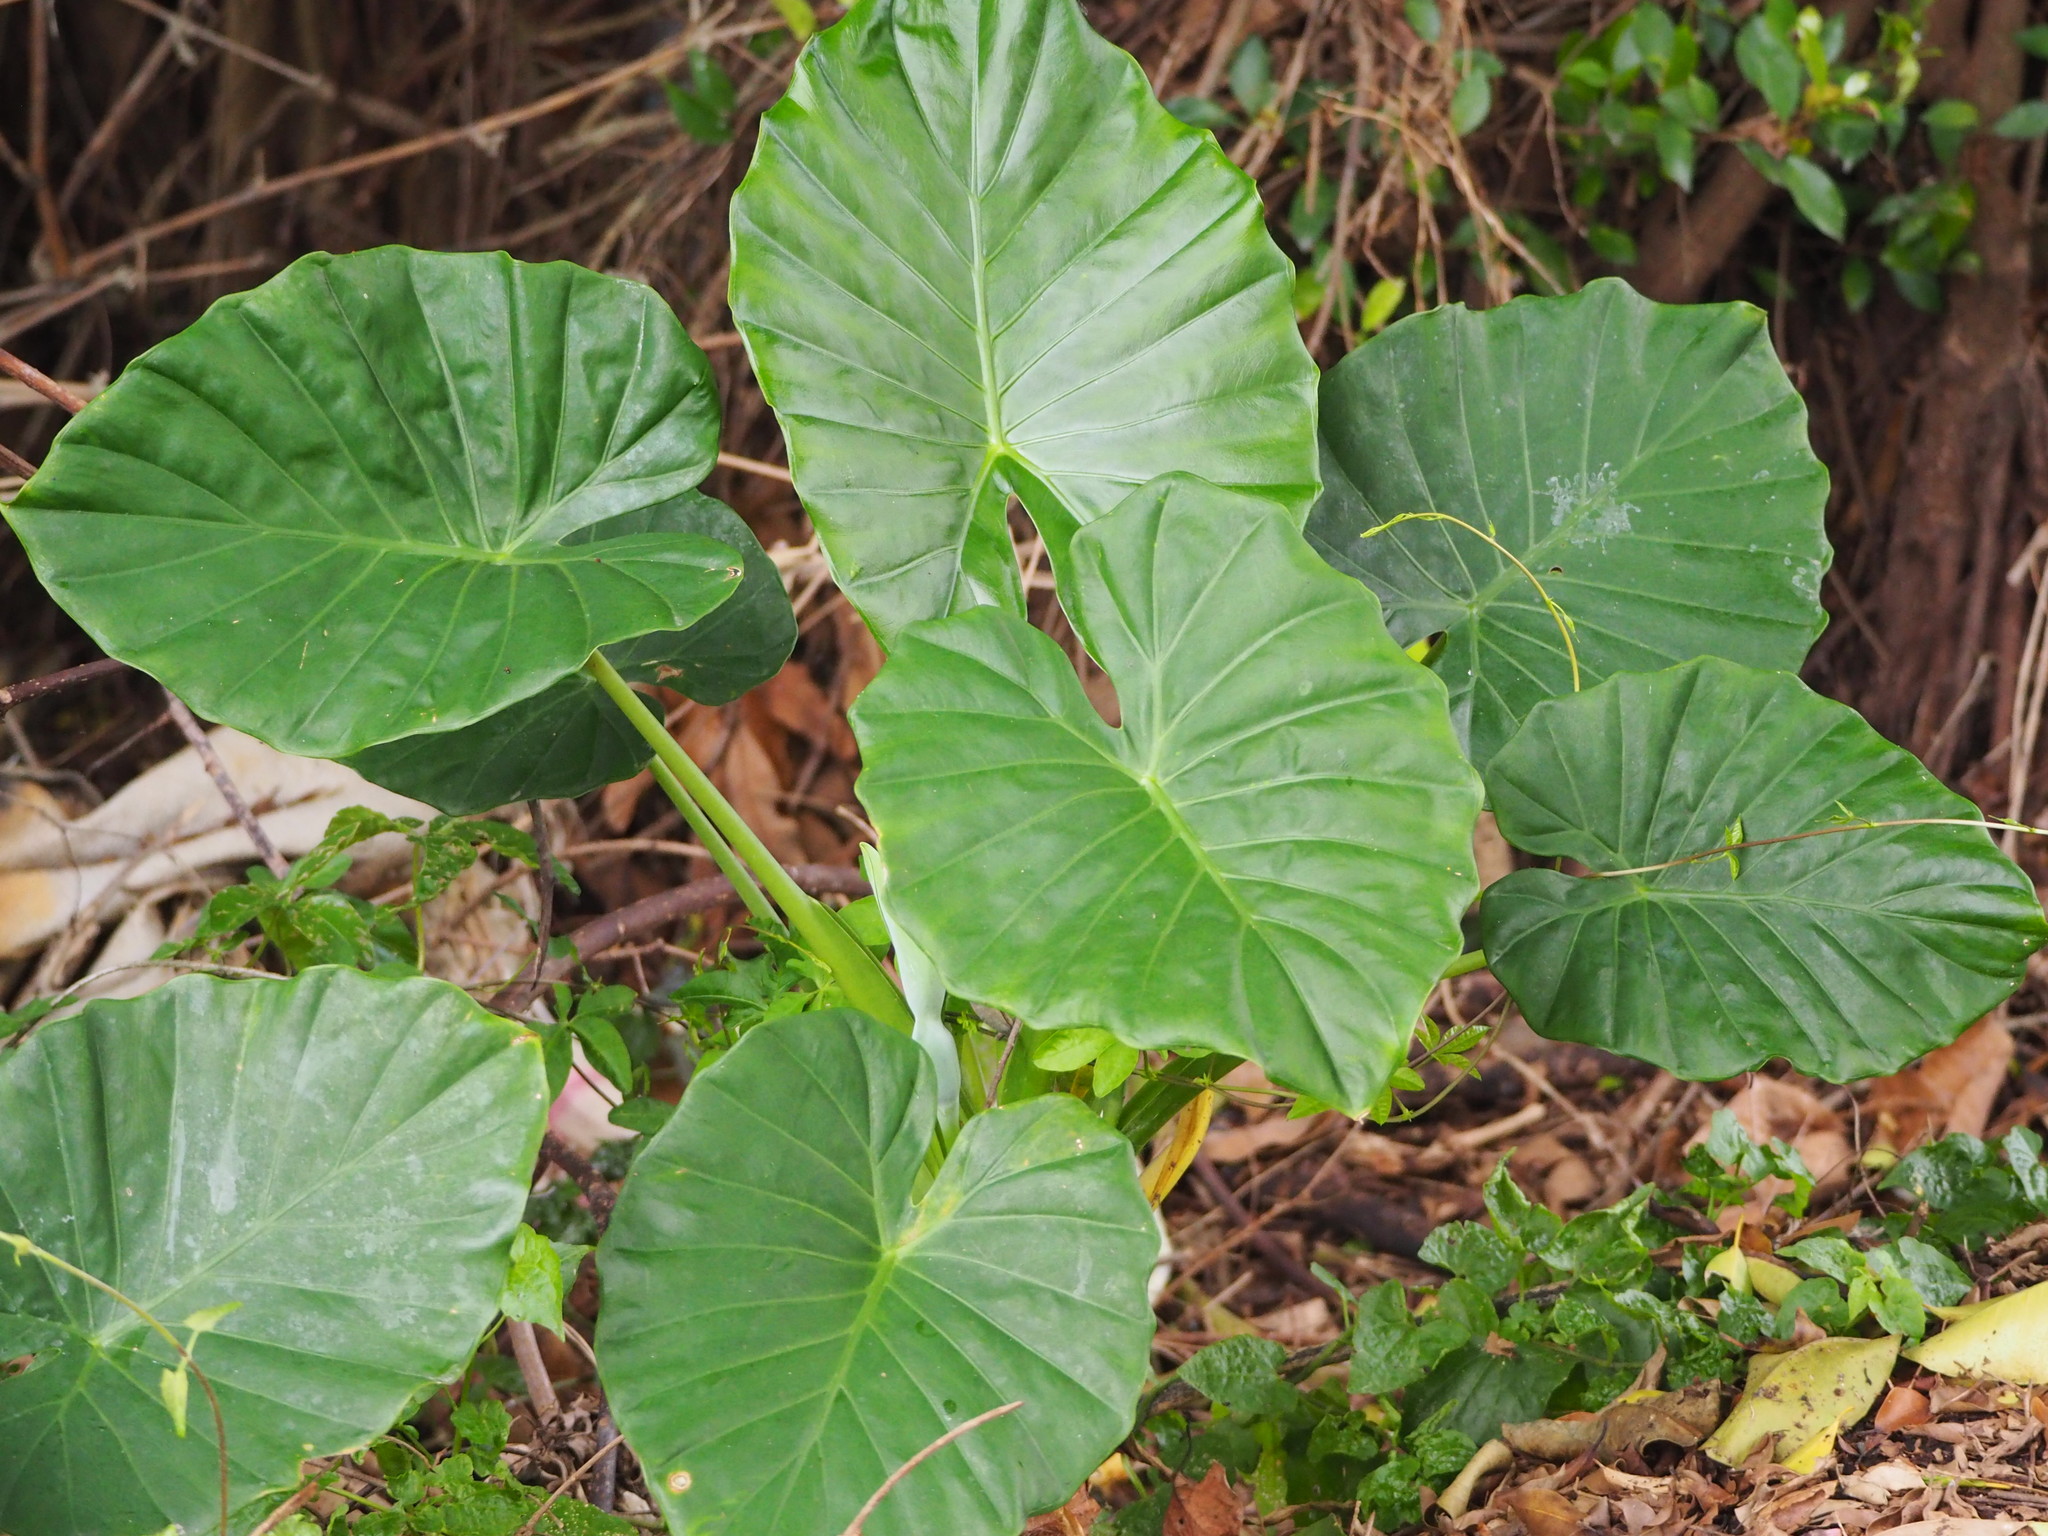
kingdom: Plantae
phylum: Tracheophyta
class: Liliopsida
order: Alismatales
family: Araceae
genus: Alocasia
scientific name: Alocasia odora
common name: Asian taro
